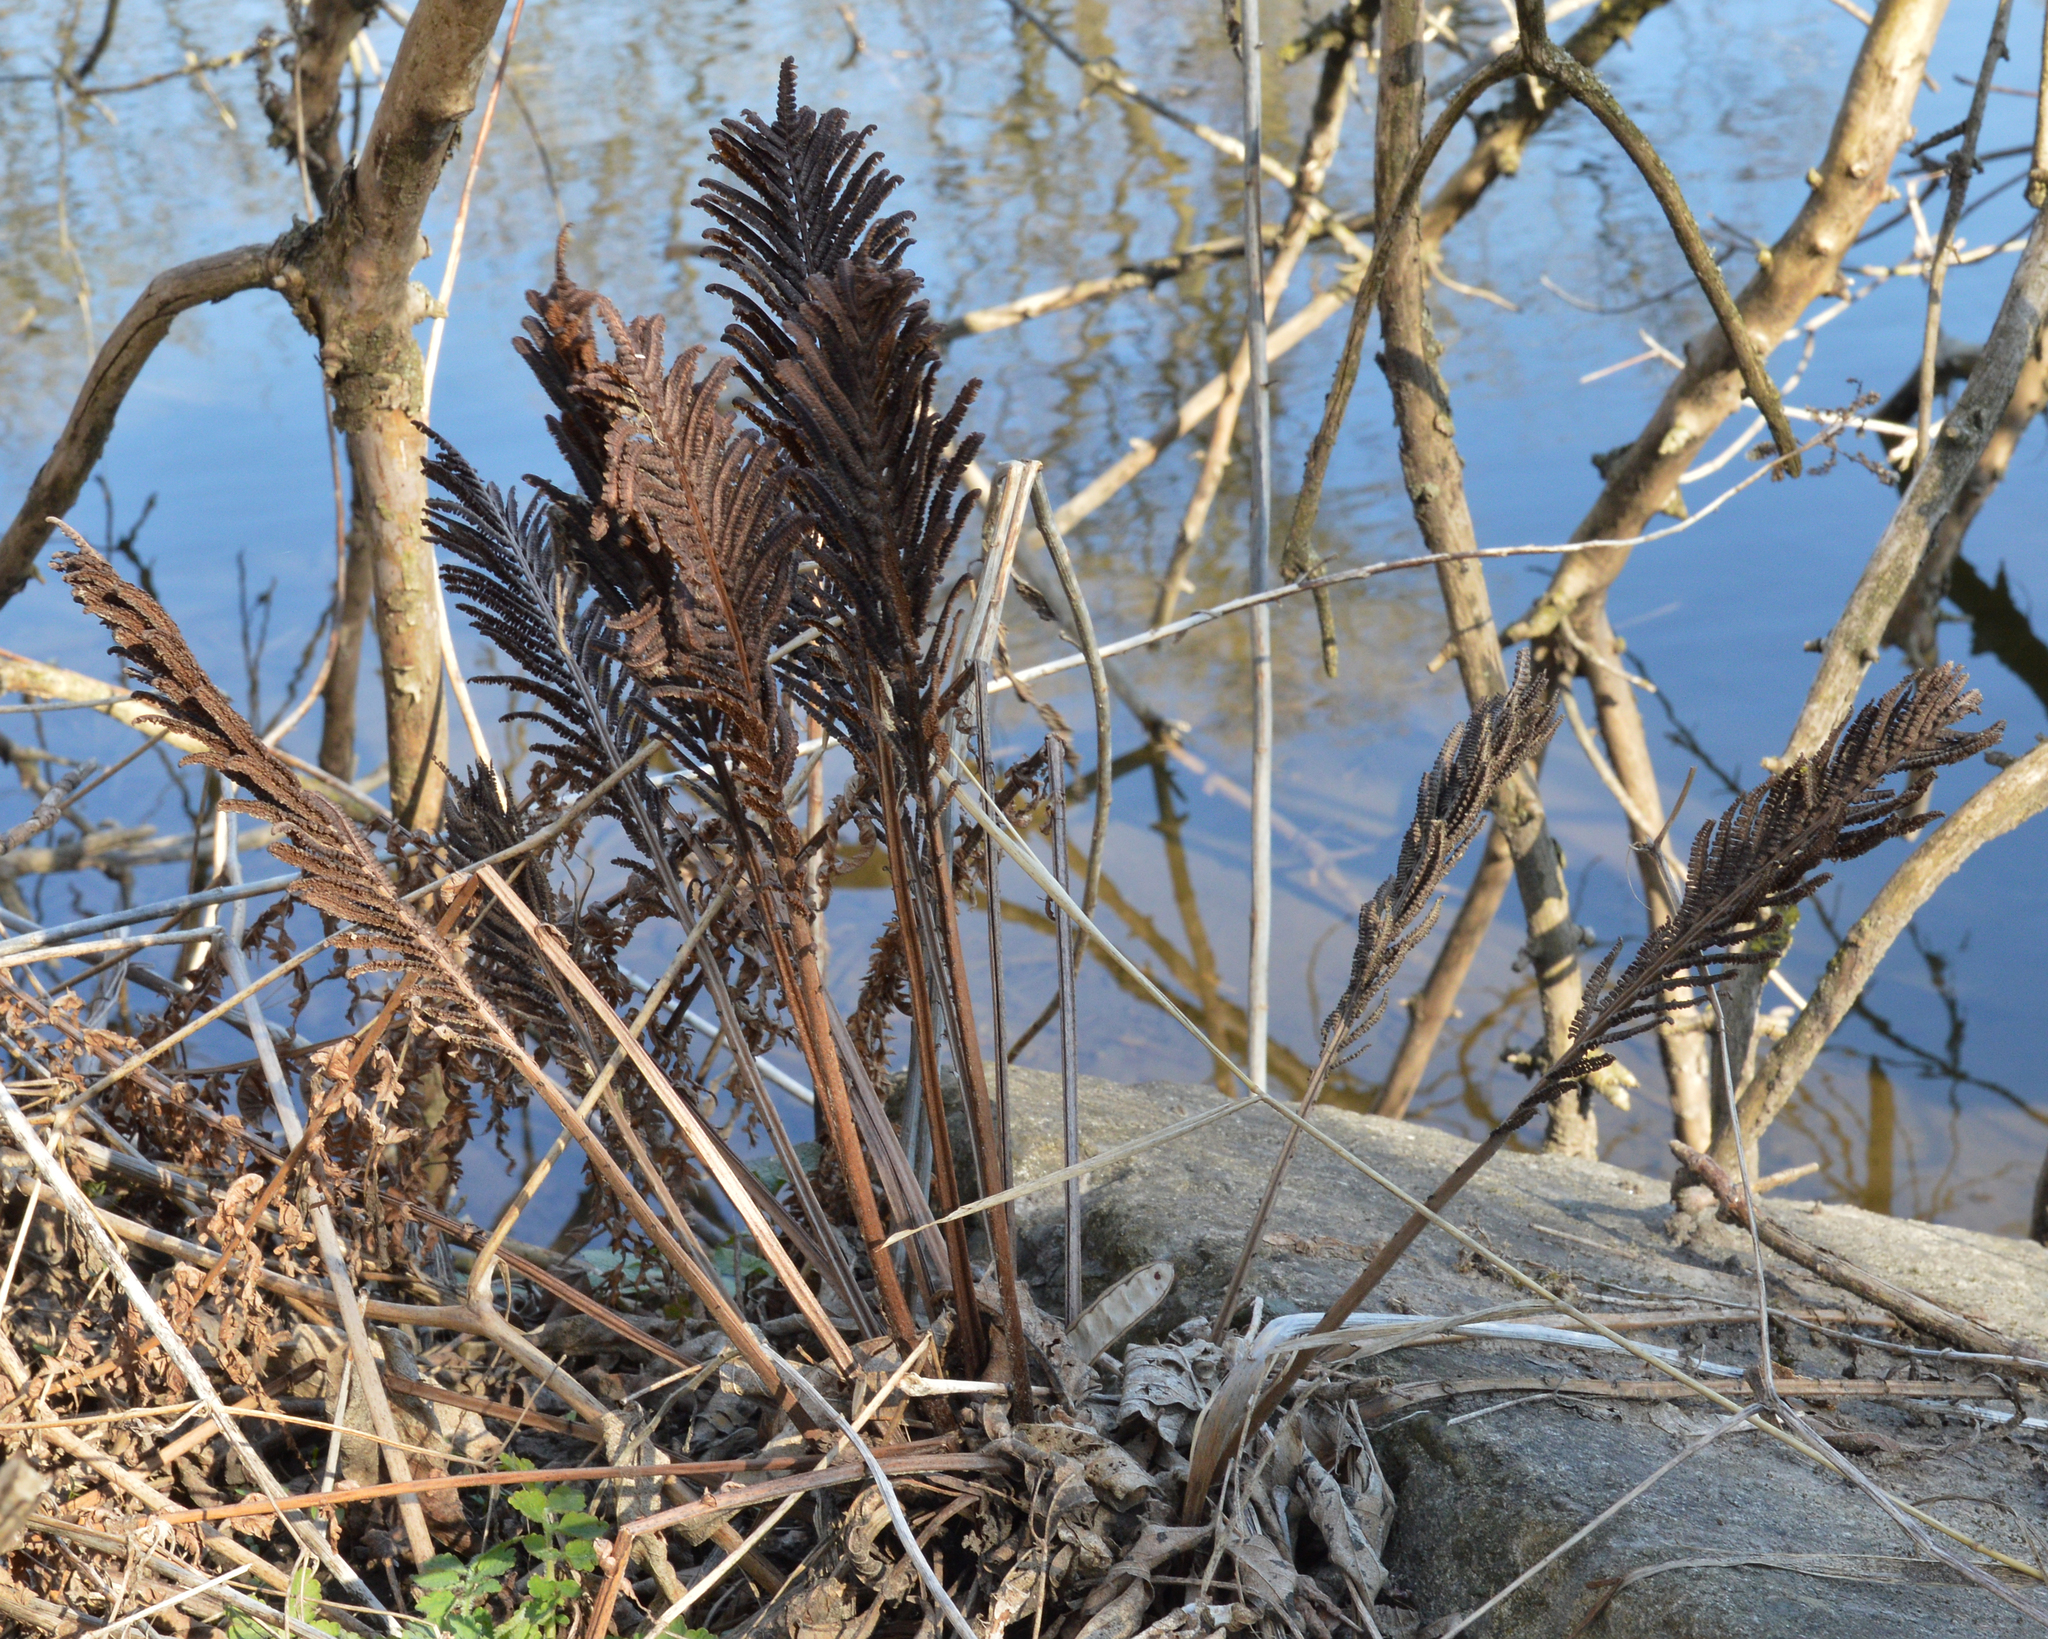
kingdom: Plantae
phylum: Tracheophyta
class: Polypodiopsida
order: Polypodiales
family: Onocleaceae
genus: Matteuccia
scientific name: Matteuccia struthiopteris
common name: Ostrich fern
